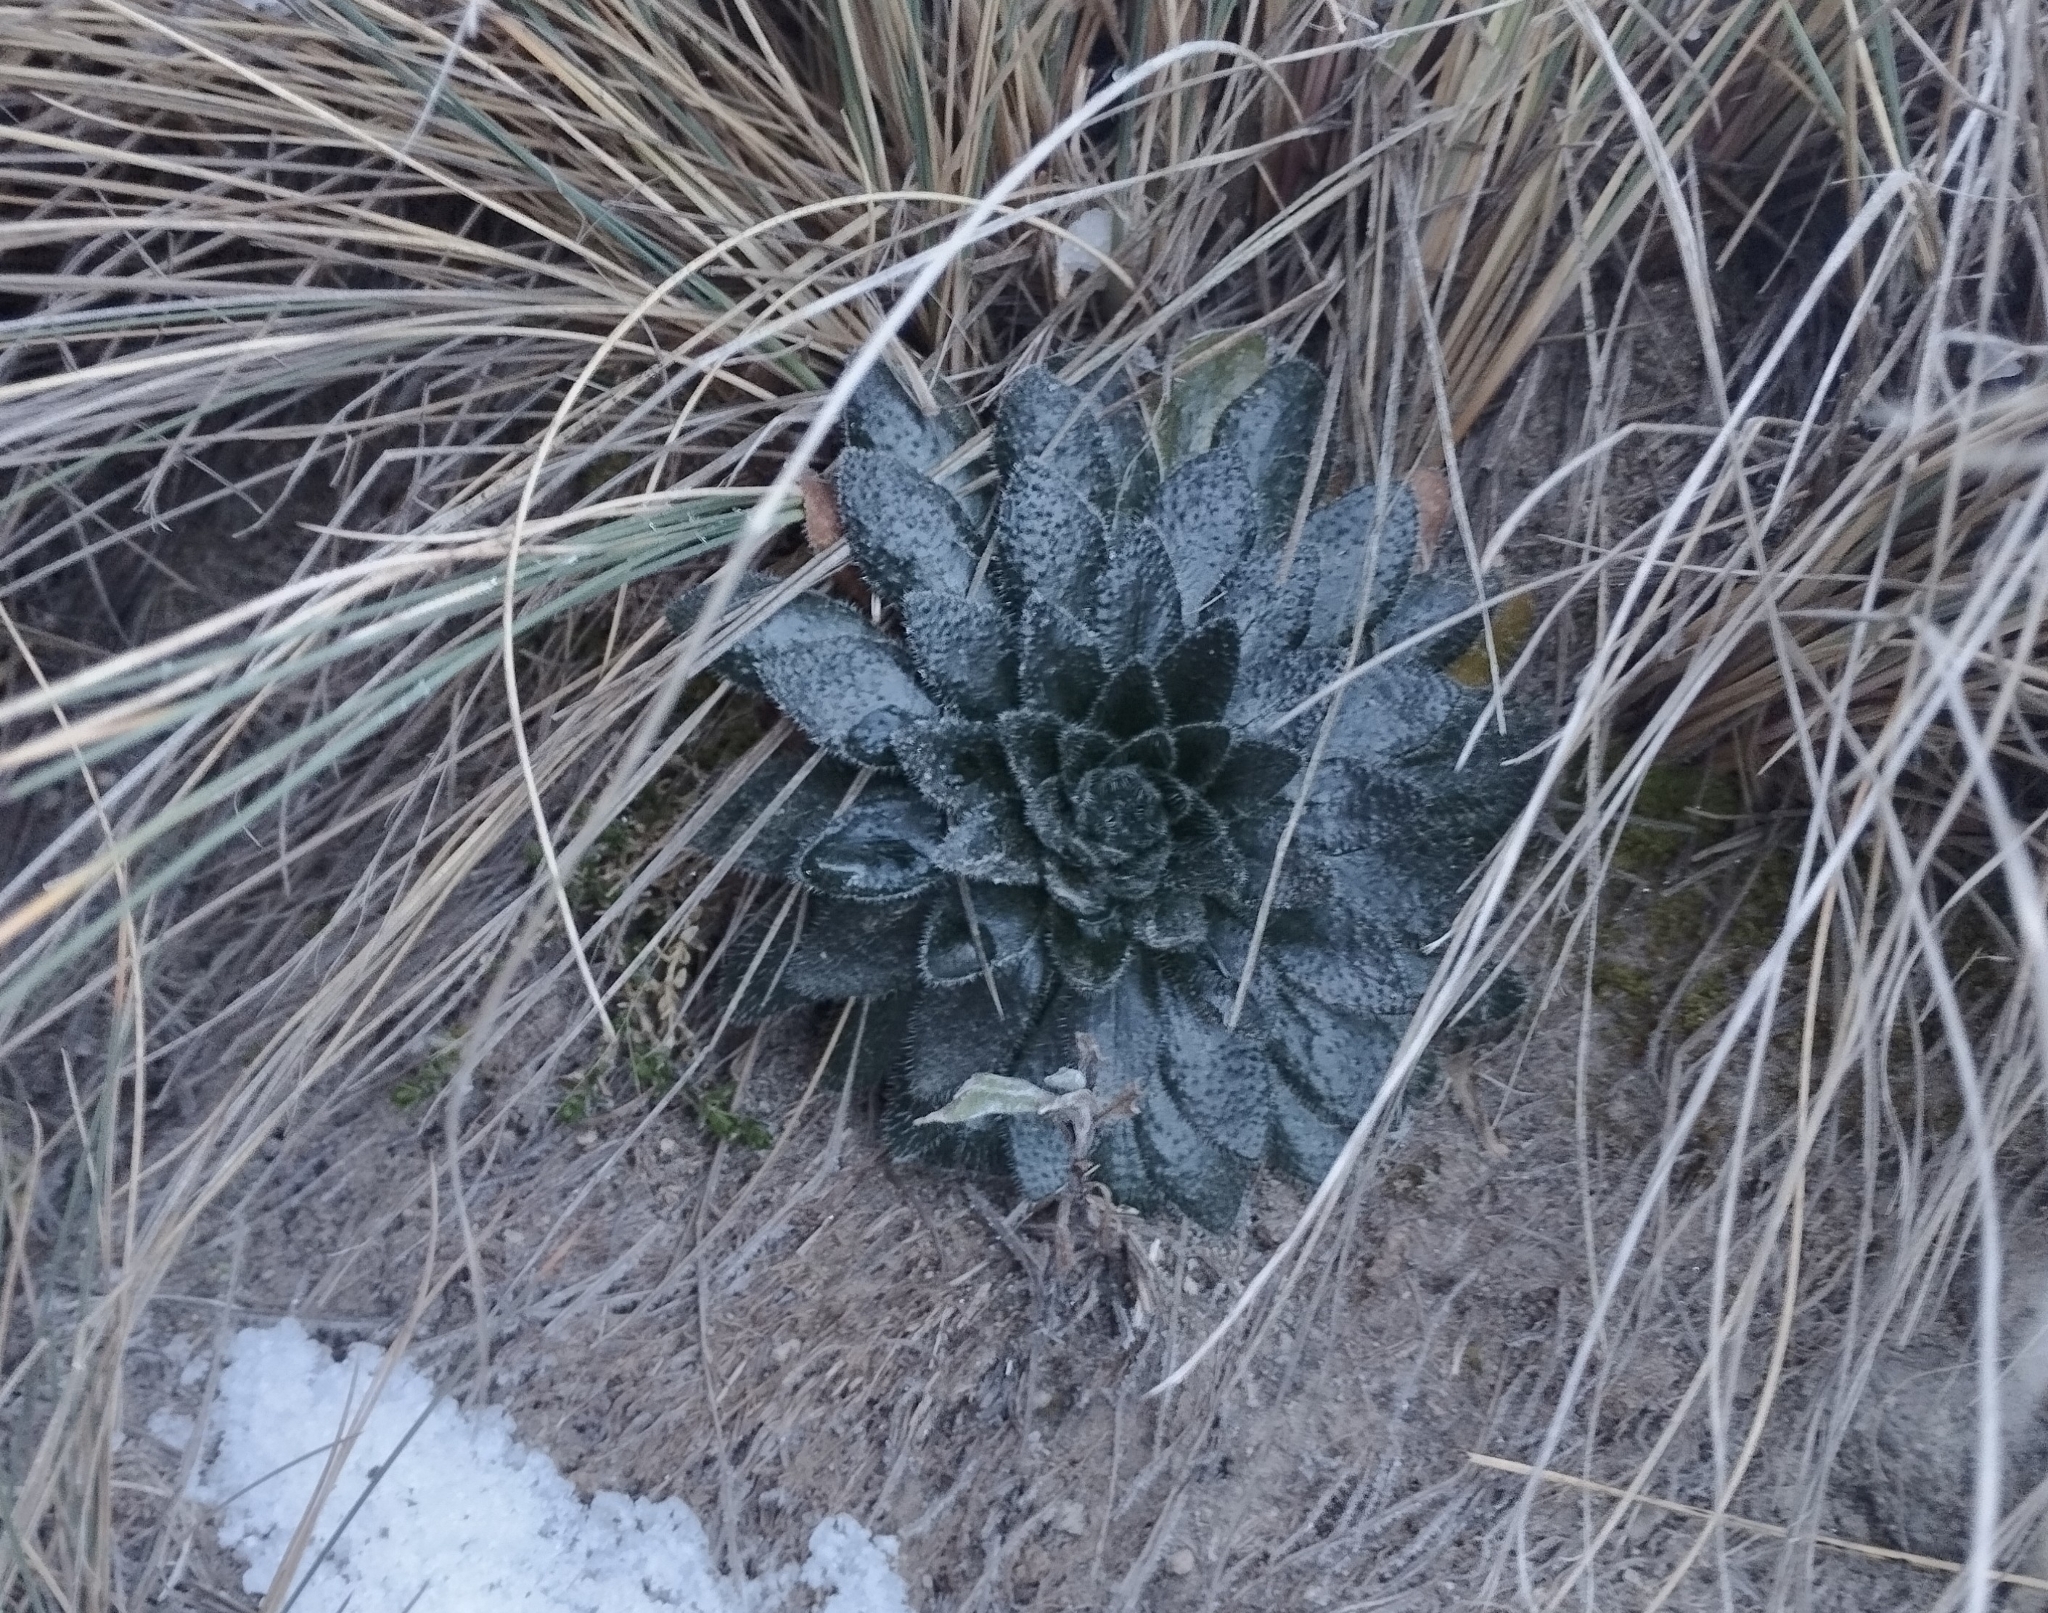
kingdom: Plantae
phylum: Tracheophyta
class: Magnoliopsida
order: Brassicales
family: Brassicaceae
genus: Draba
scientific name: Draba jorullensis
